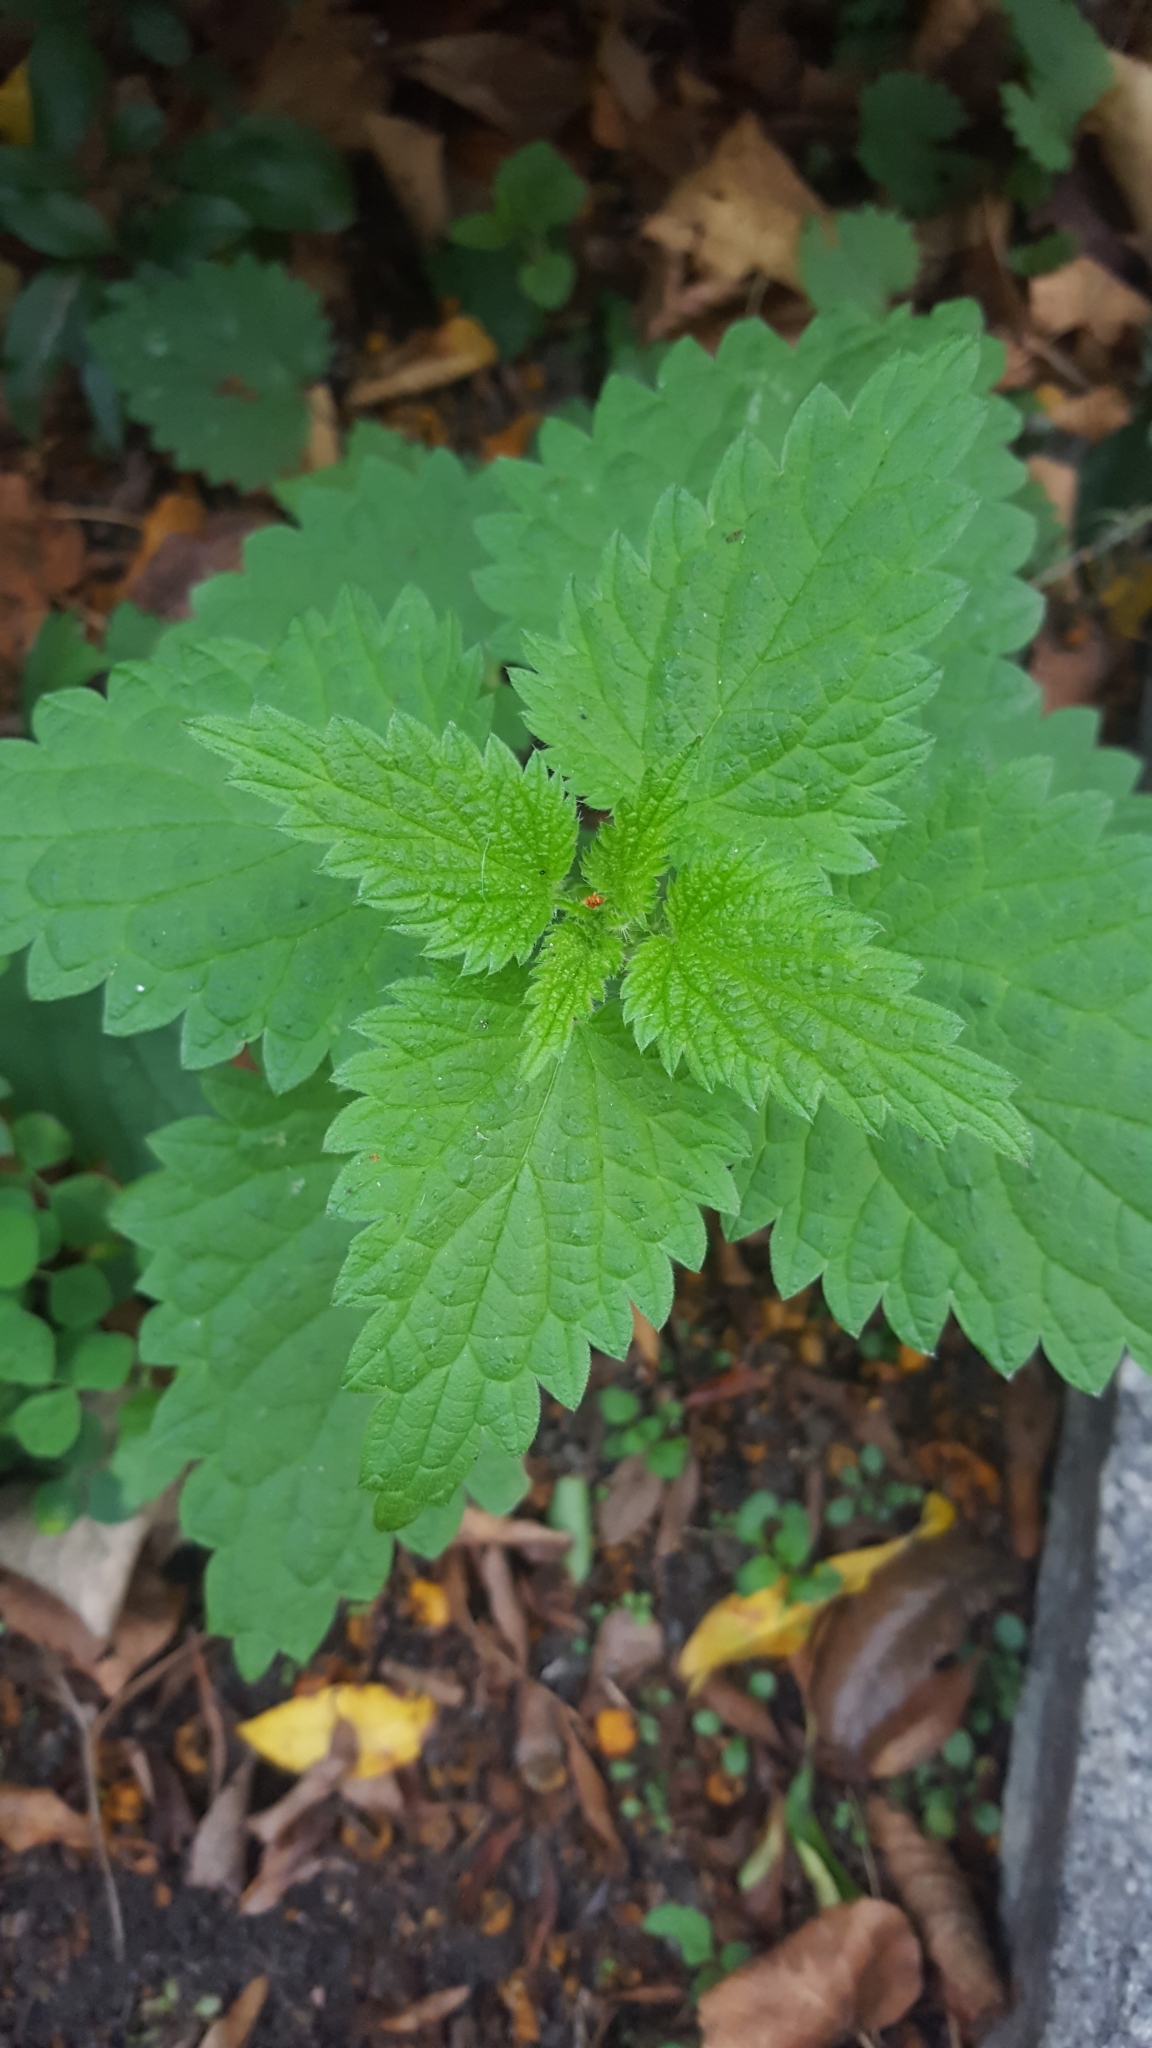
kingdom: Plantae
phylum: Tracheophyta
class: Magnoliopsida
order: Rosales
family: Urticaceae
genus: Urtica
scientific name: Urtica dioica
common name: Common nettle
